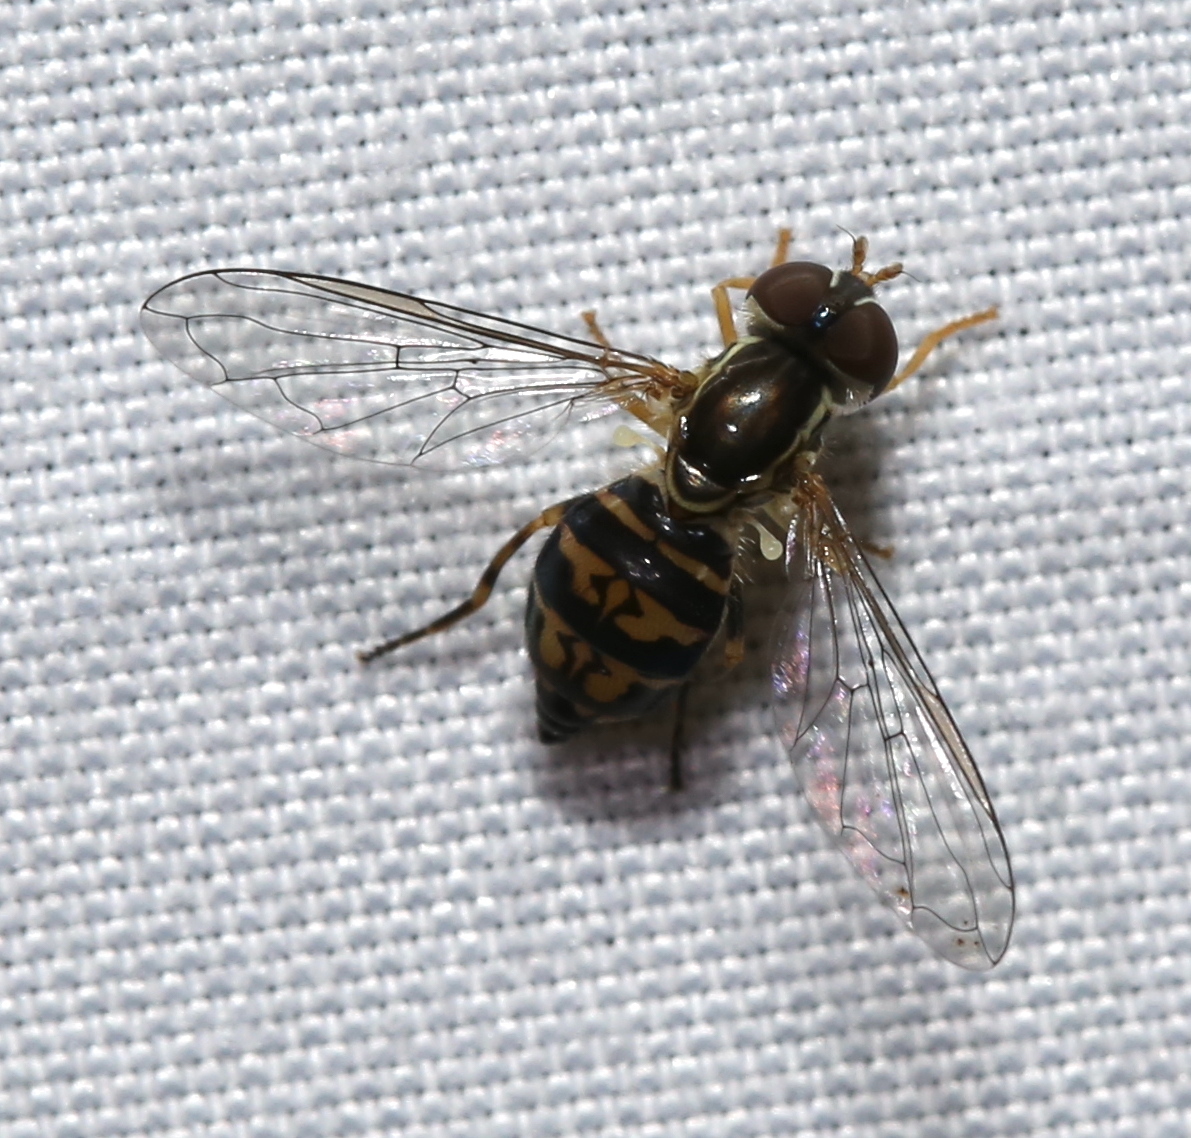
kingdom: Animalia
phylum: Arthropoda
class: Insecta
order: Diptera
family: Syrphidae
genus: Toxomerus
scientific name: Toxomerus geminatus
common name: Eastern calligrapher
